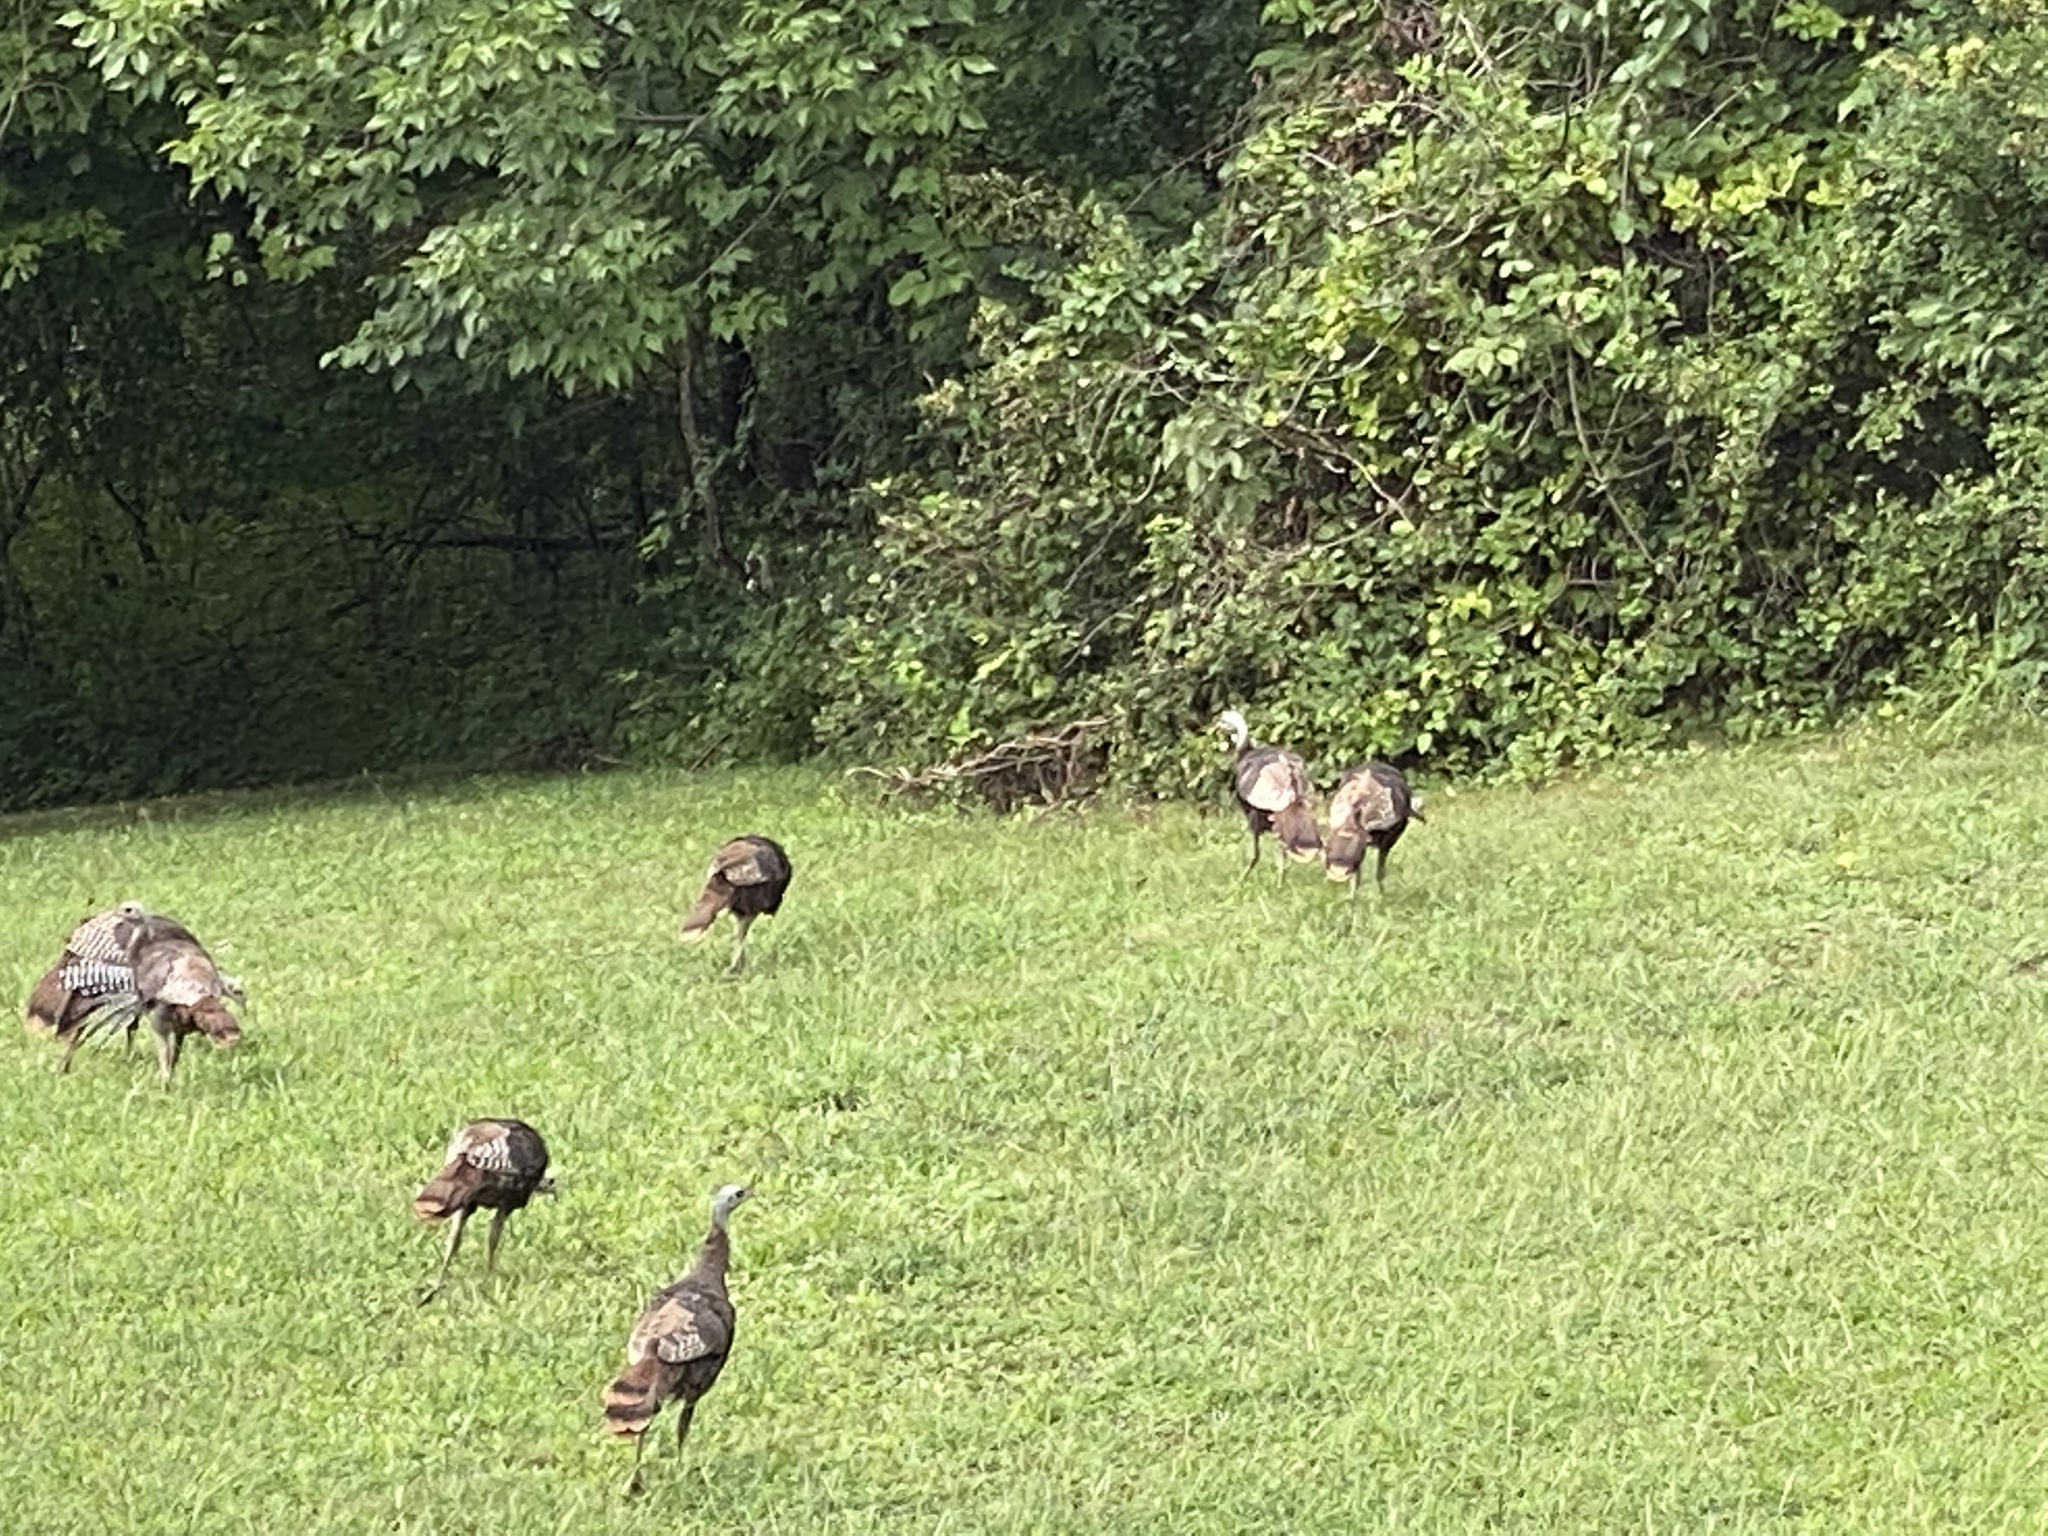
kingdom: Animalia
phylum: Chordata
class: Aves
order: Galliformes
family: Phasianidae
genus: Meleagris
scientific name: Meleagris gallopavo
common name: Wild turkey
